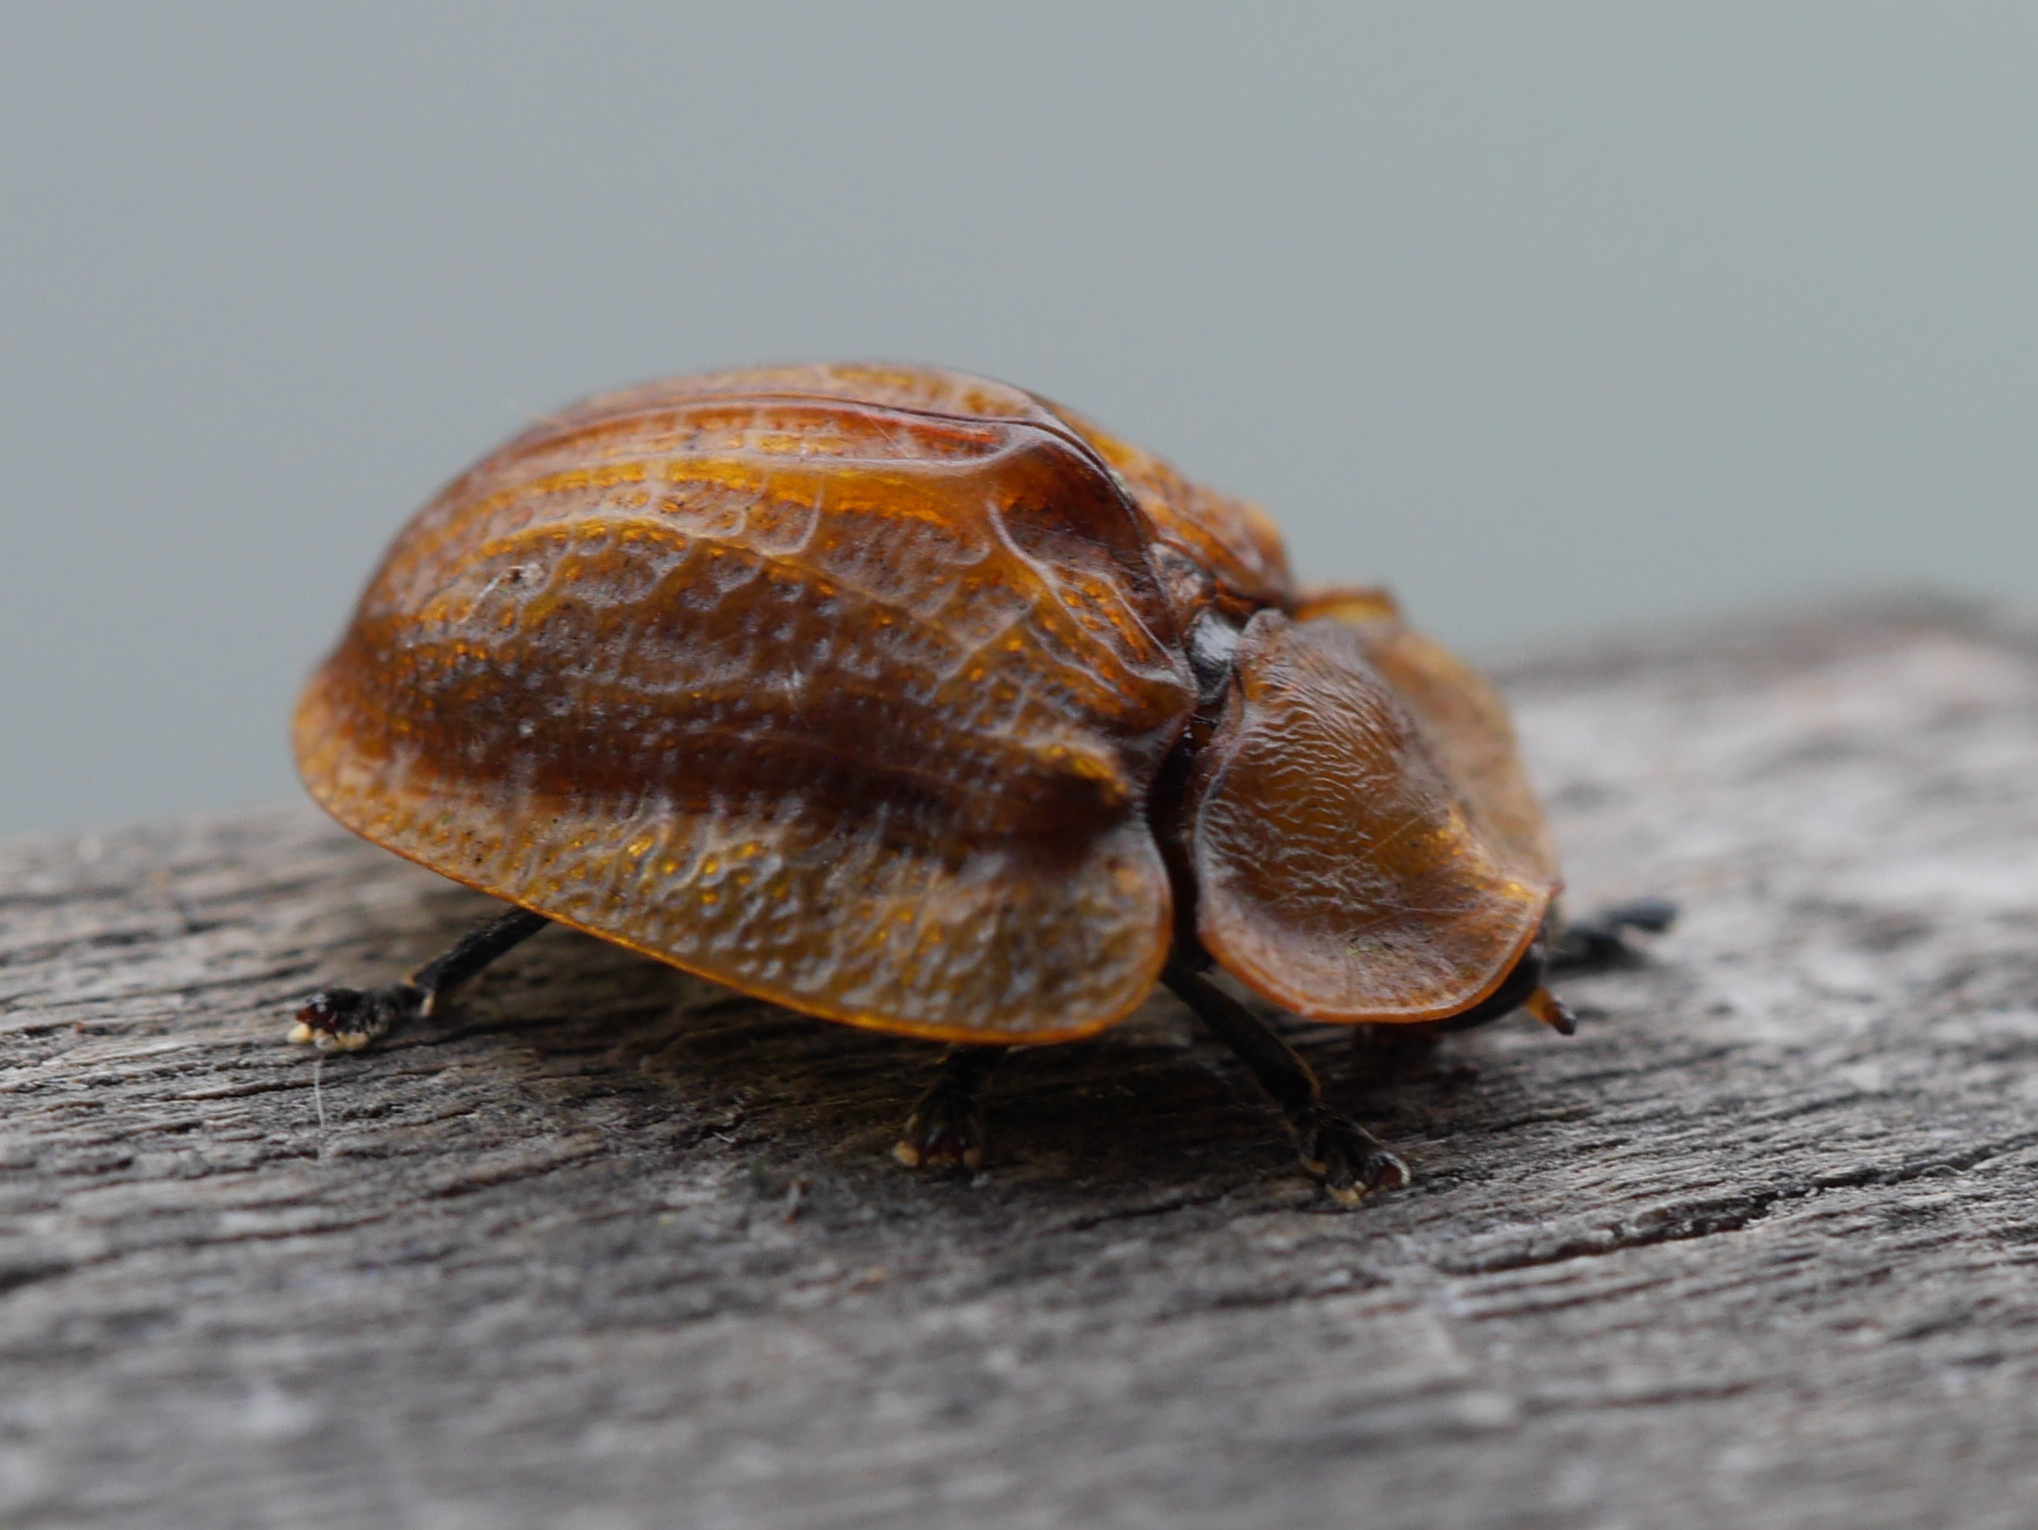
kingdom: Animalia
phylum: Arthropoda
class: Insecta
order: Coleoptera
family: Chrysomelidae
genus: Laccoptera
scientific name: Laccoptera corrugata
